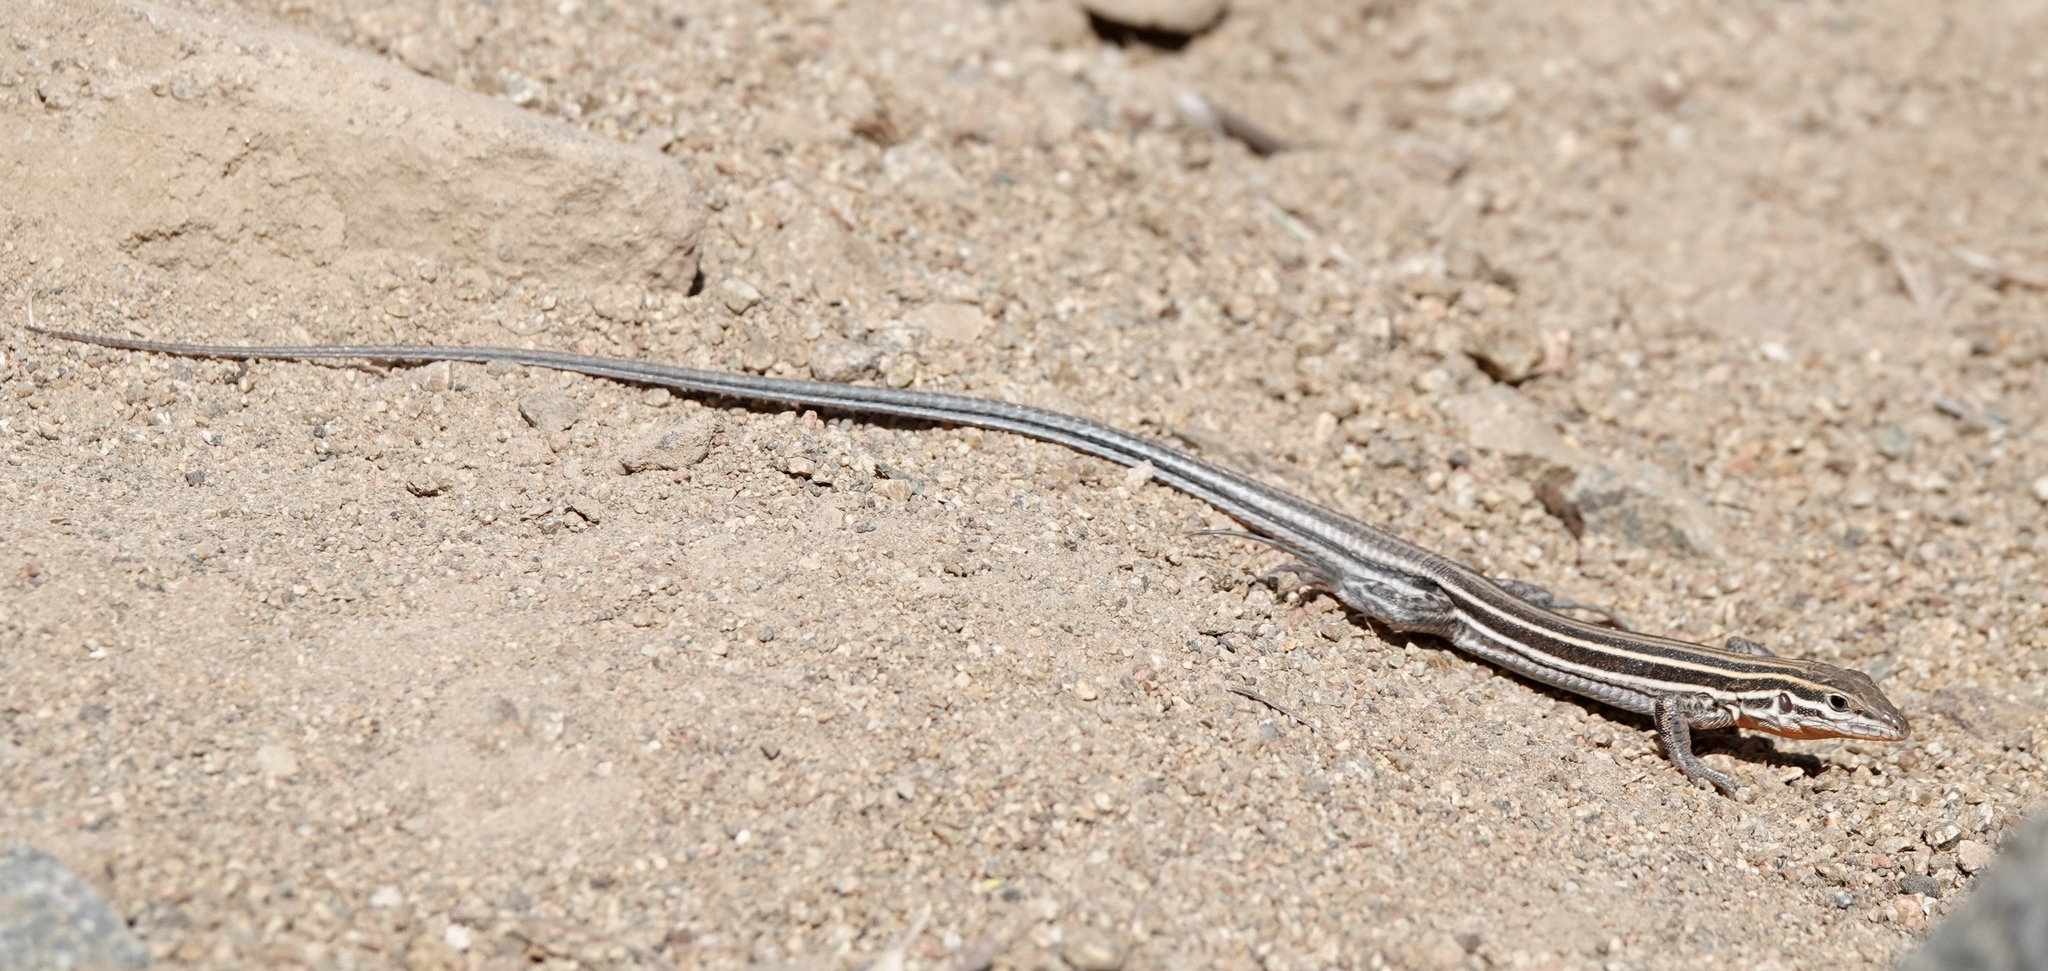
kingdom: Animalia
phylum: Chordata
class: Squamata
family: Teiidae
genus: Aspidoscelis
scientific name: Aspidoscelis hyperythrus
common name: Orange-throated race-runner
